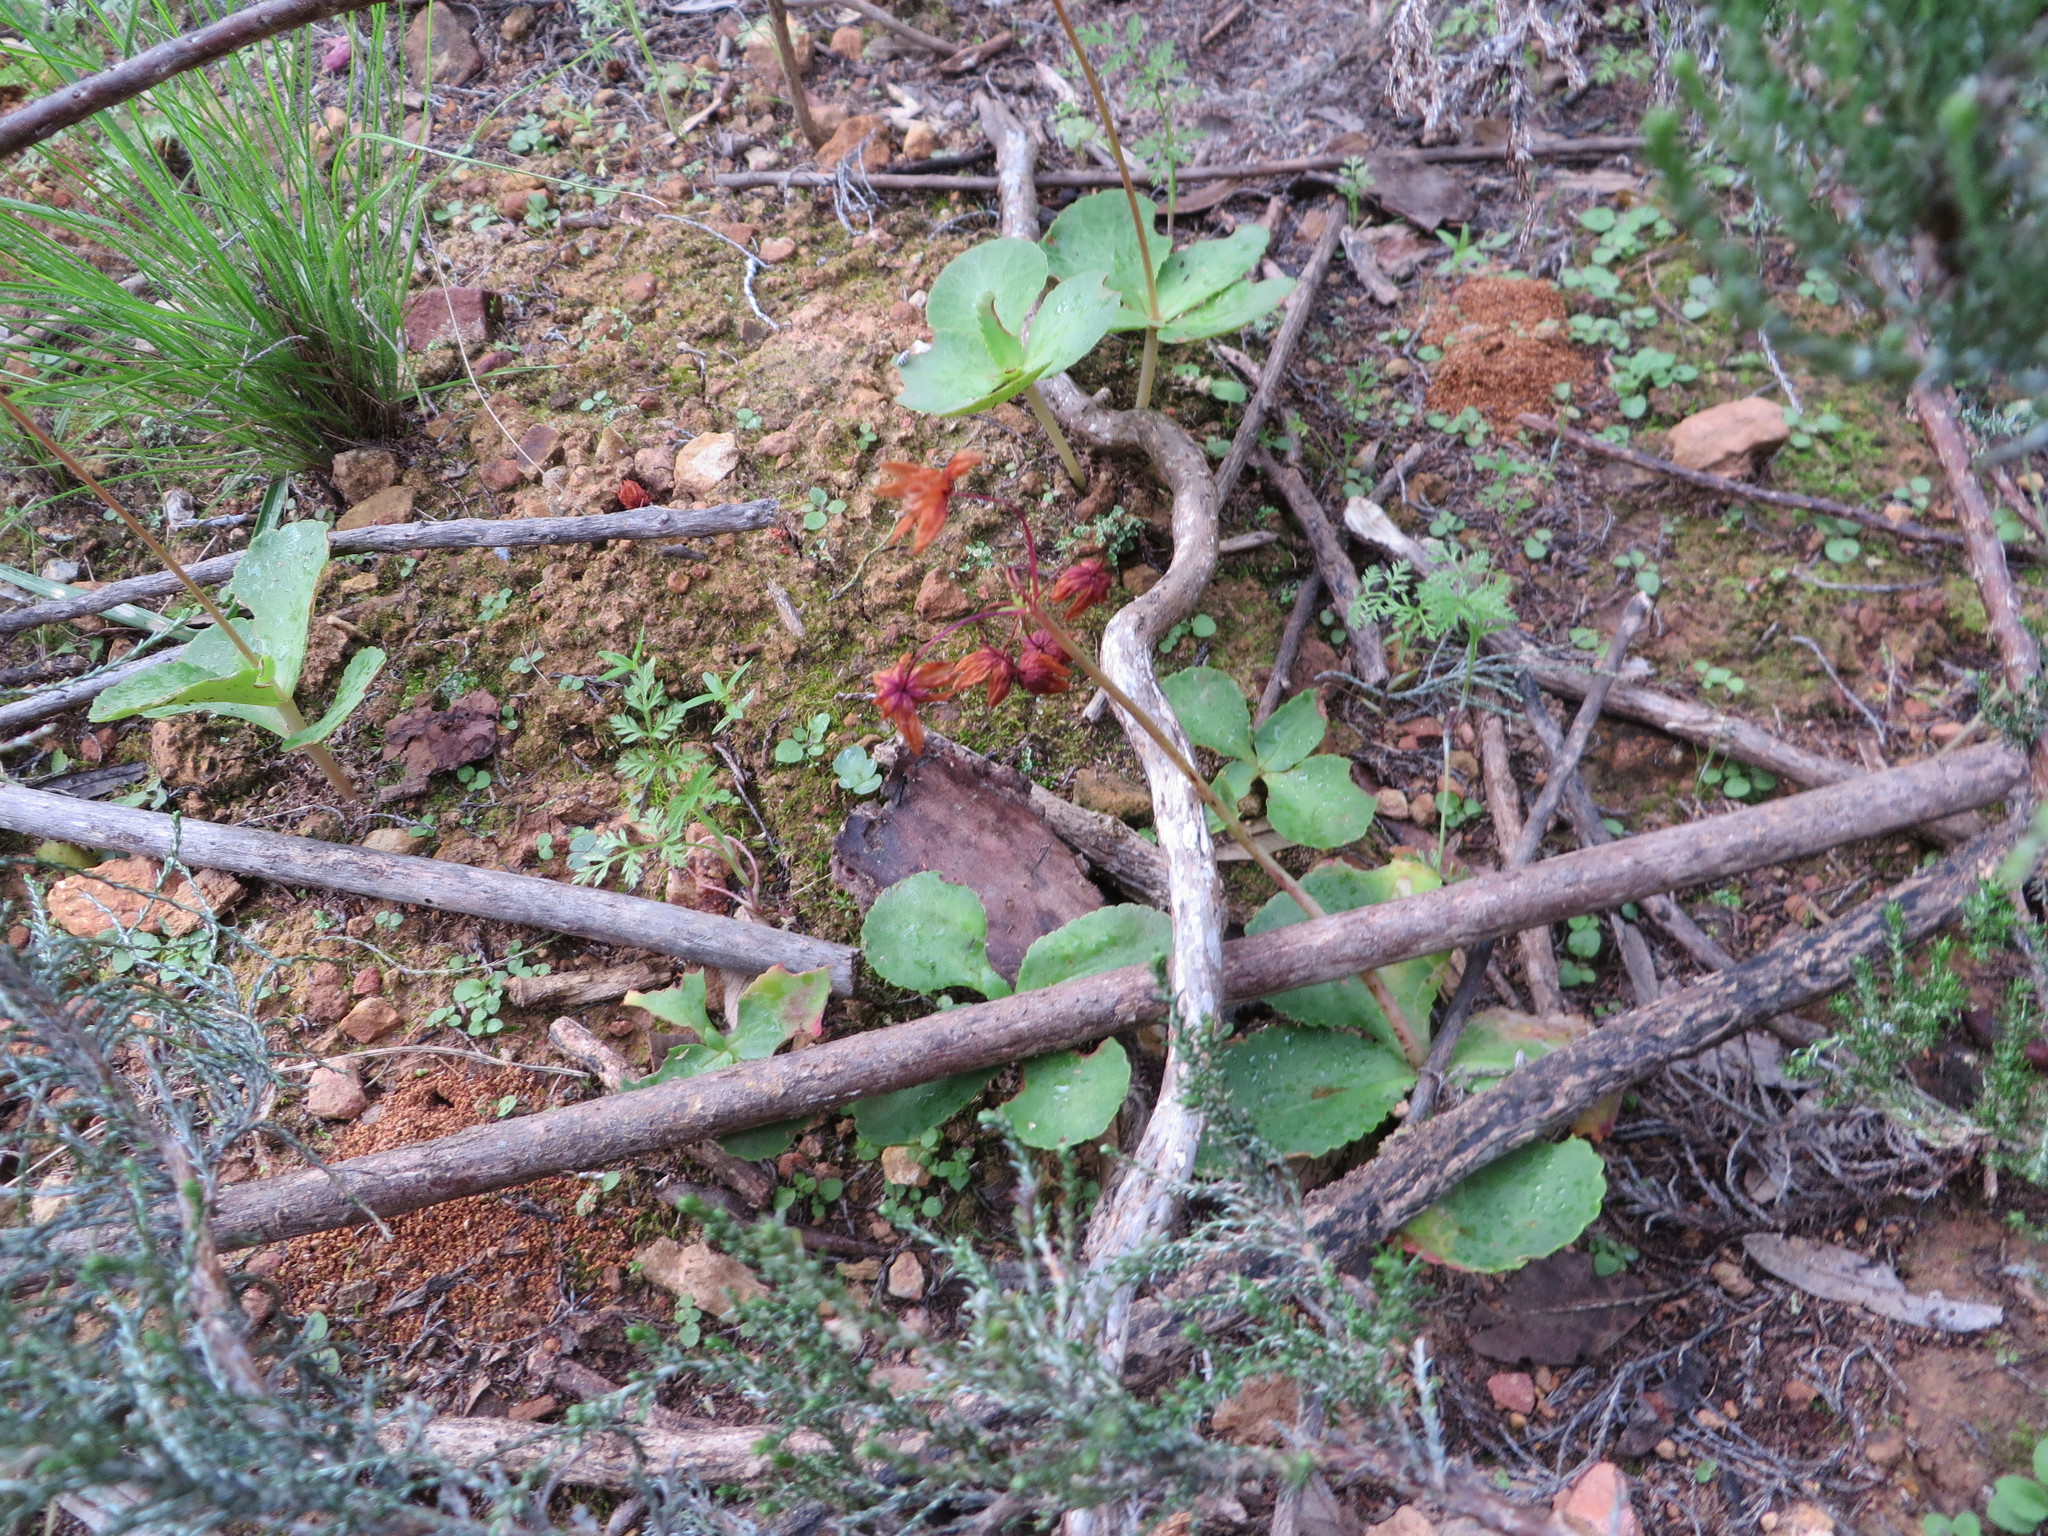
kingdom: Plantae
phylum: Tracheophyta
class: Magnoliopsida
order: Saxifragales
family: Crassulaceae
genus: Crassula
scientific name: Crassula capensis
